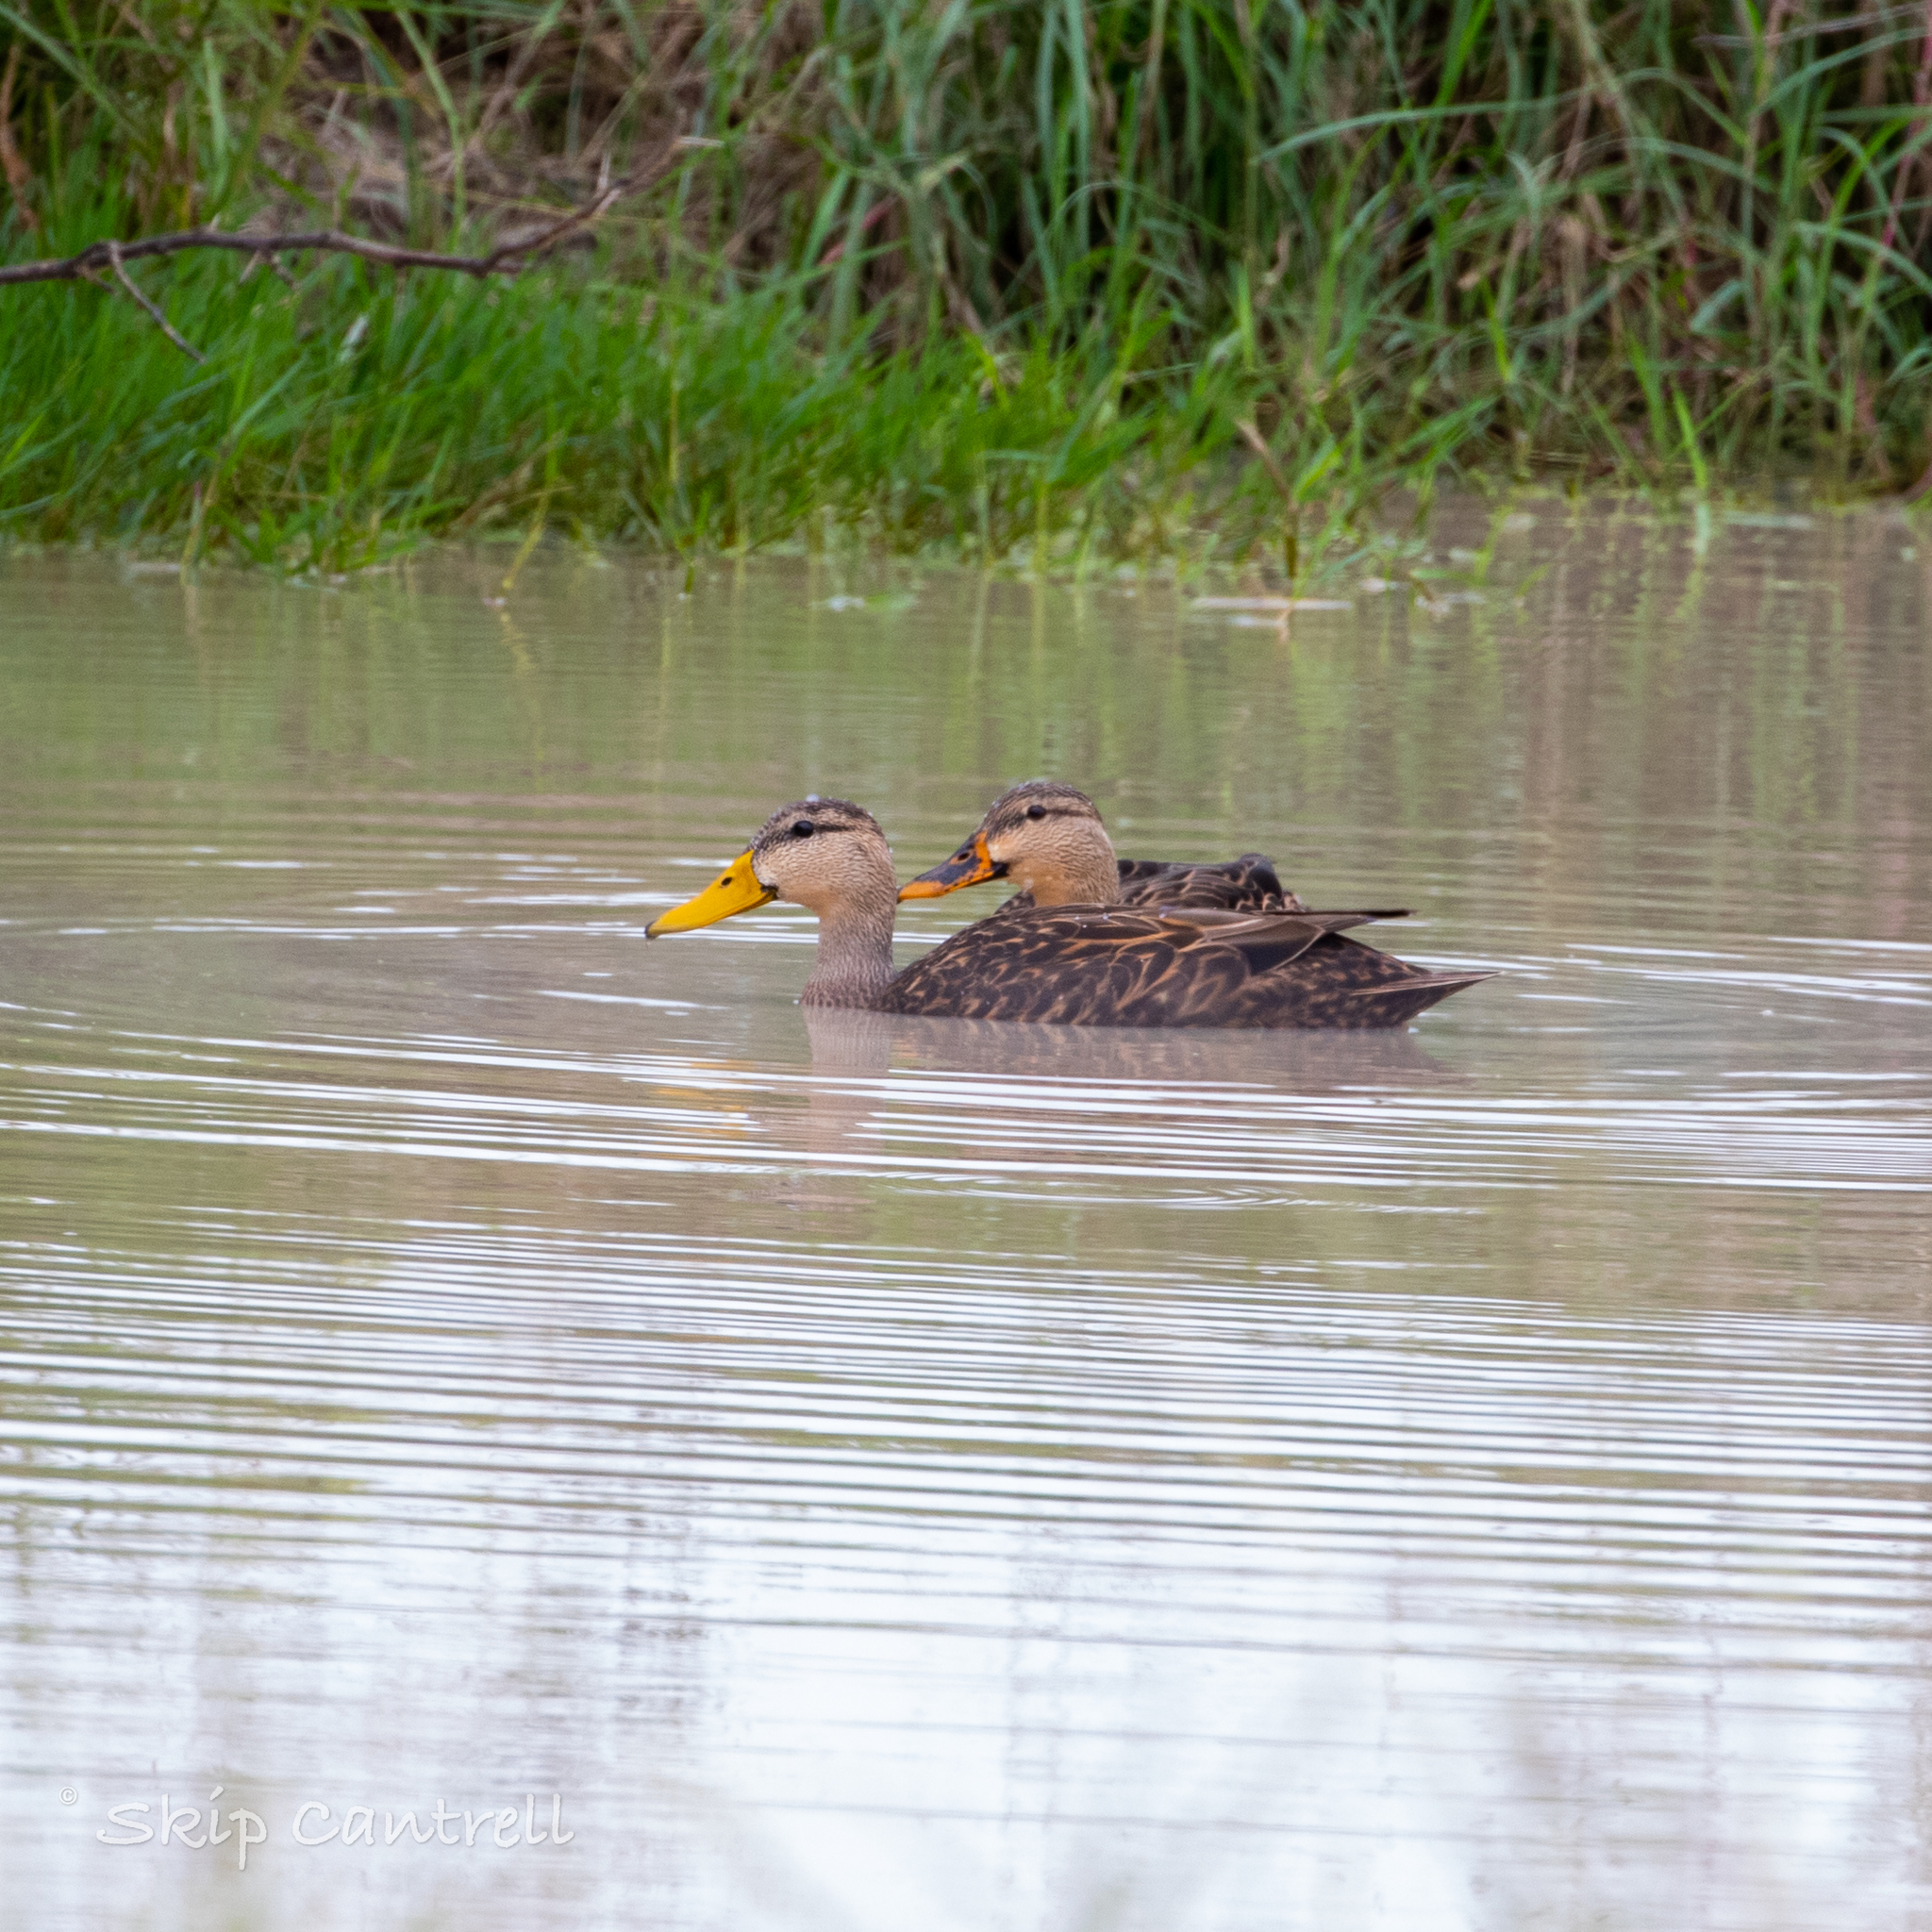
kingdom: Animalia
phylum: Chordata
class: Aves
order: Anseriformes
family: Anatidae
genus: Anas
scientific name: Anas fulvigula
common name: Mottled duck
